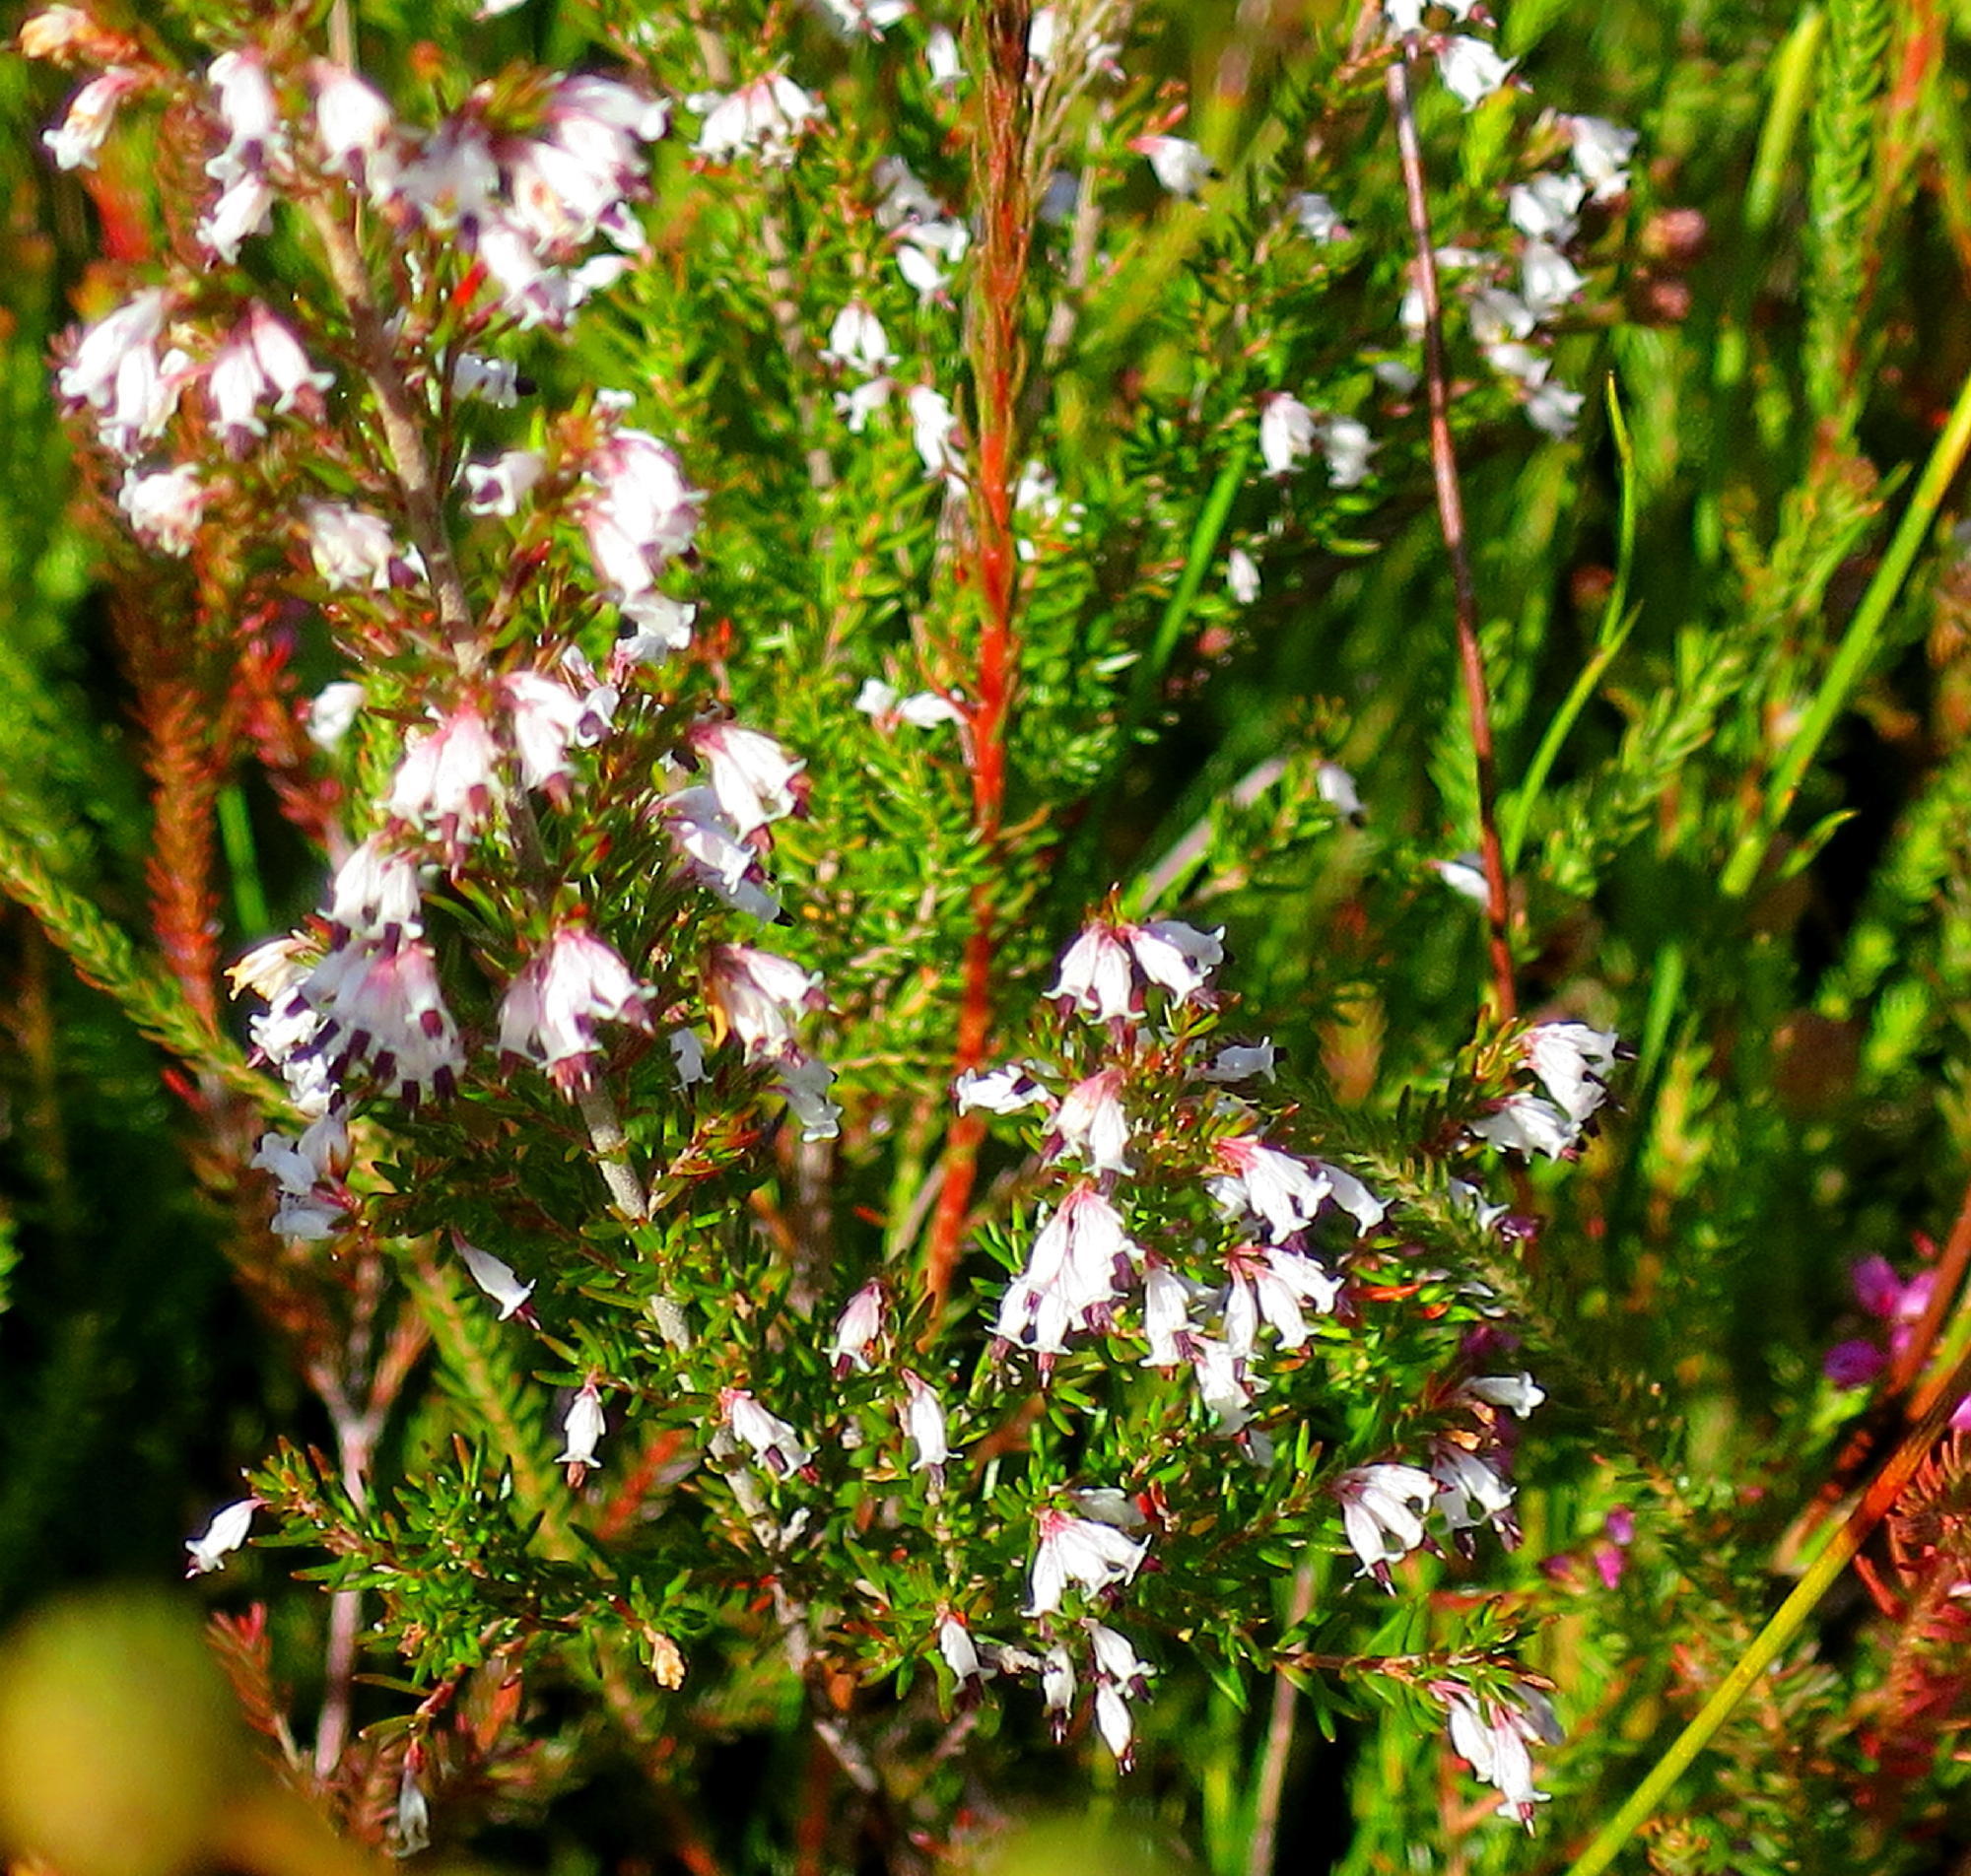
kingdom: Plantae
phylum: Tracheophyta
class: Magnoliopsida
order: Ericales
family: Ericaceae
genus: Erica
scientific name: Erica fuscescens
